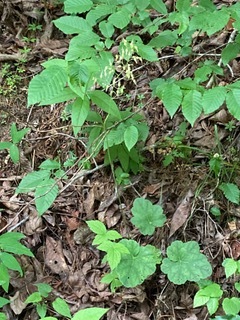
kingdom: Plantae
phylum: Tracheophyta
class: Magnoliopsida
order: Saxifragales
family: Saxifragaceae
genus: Heuchera
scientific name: Heuchera americana
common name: Alumroot
